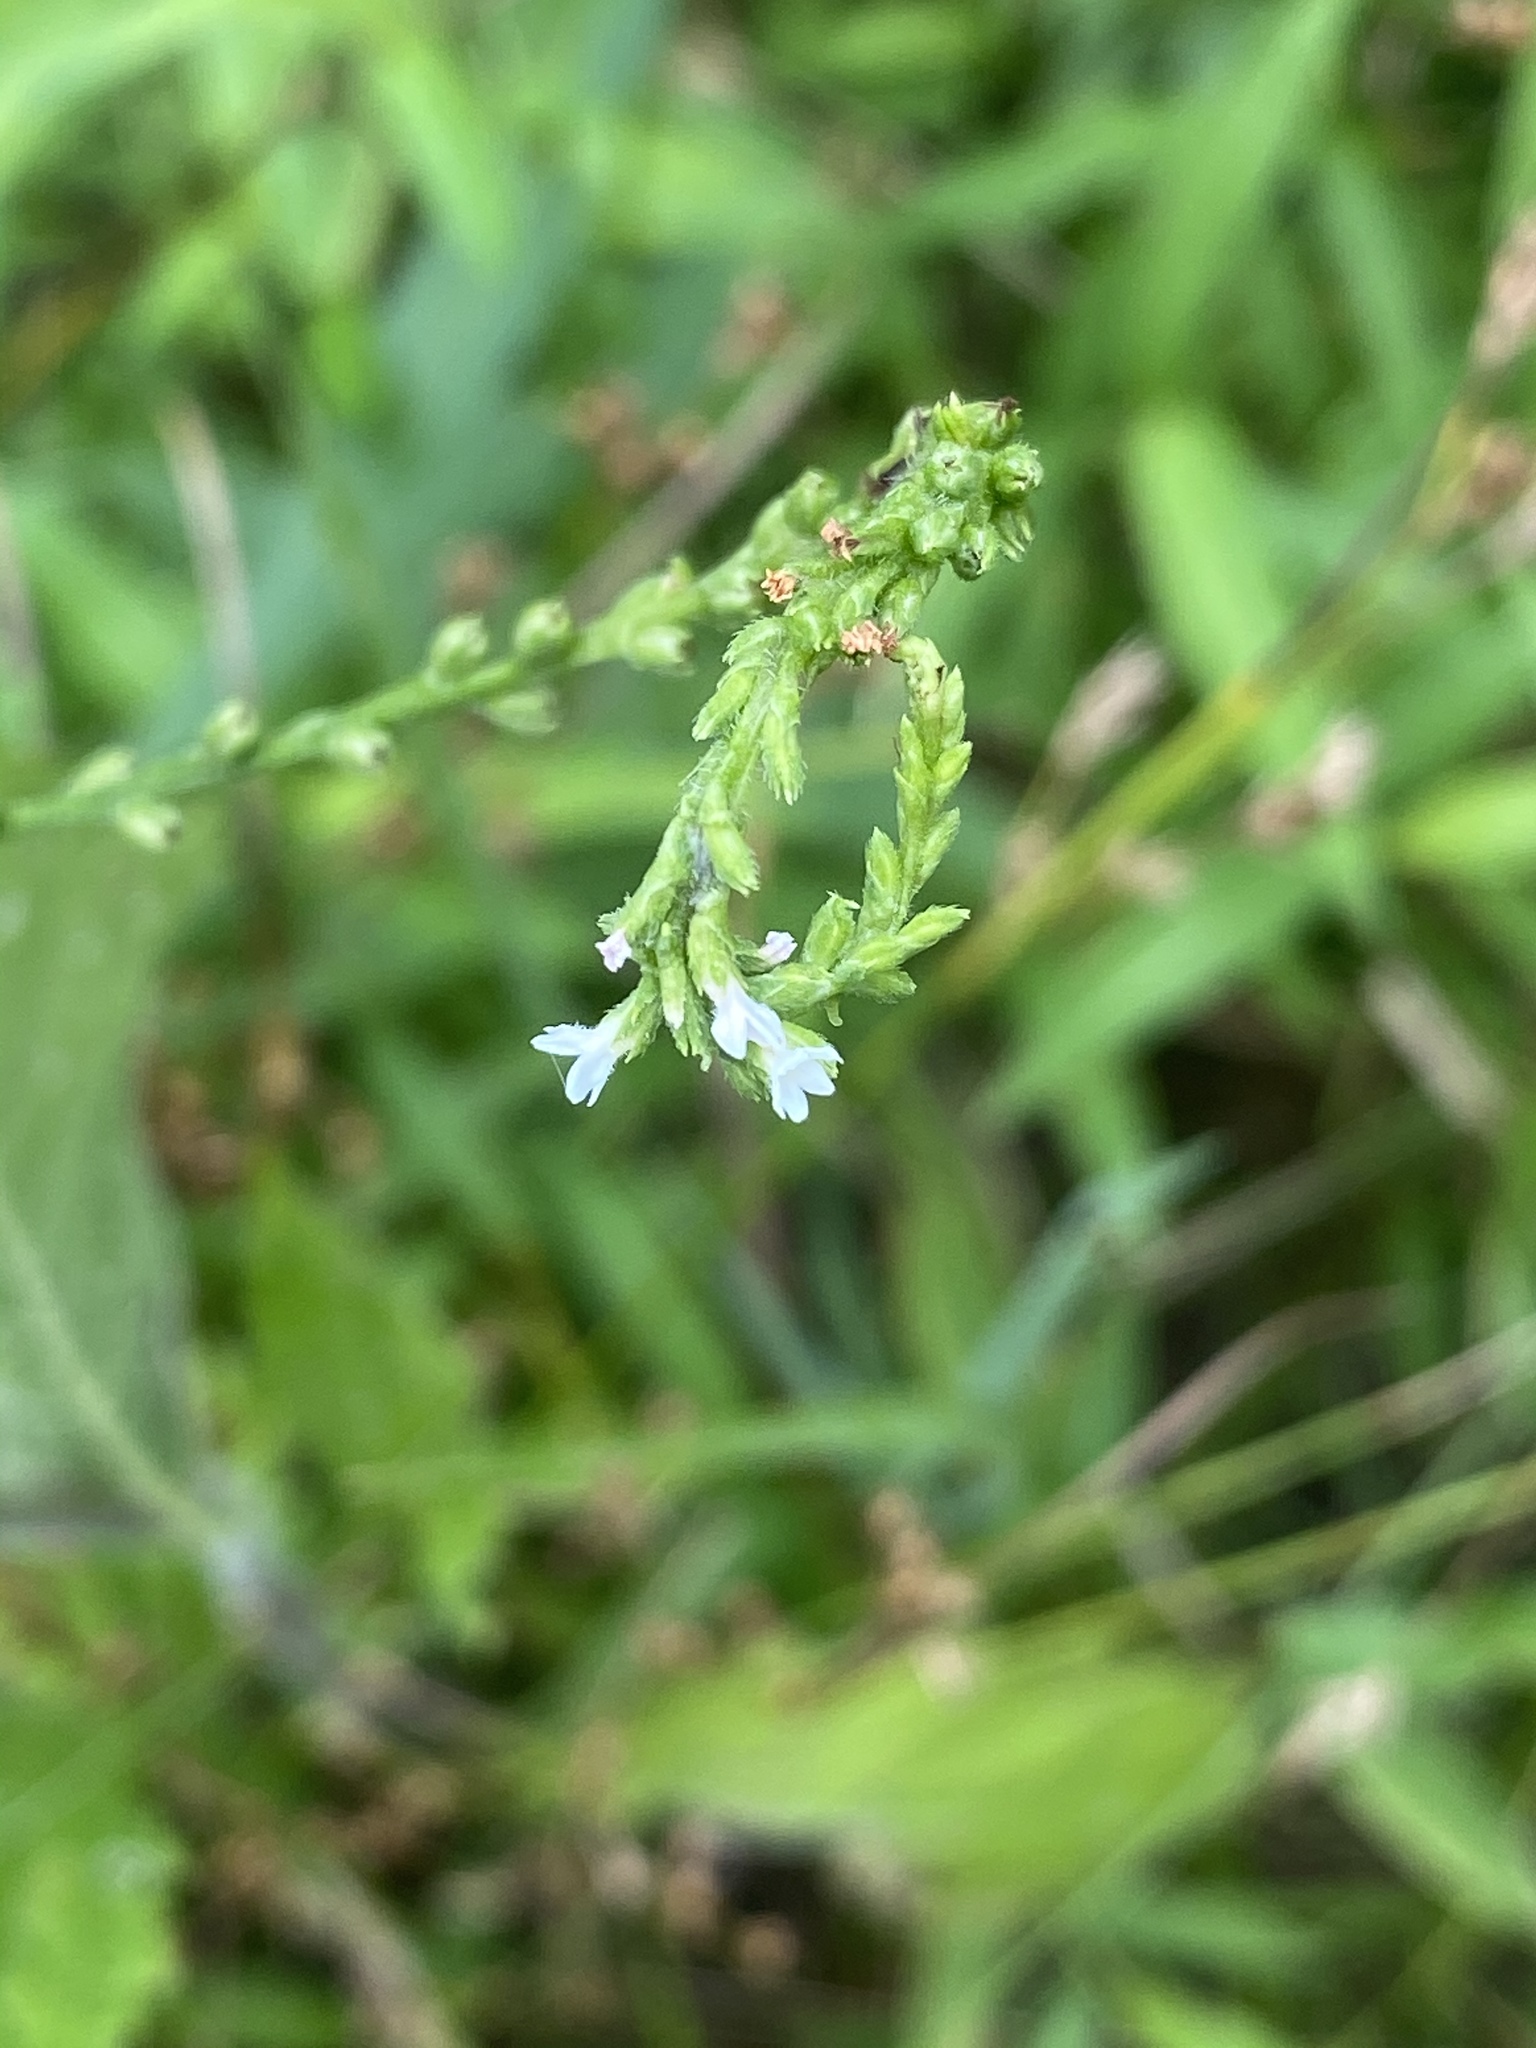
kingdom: Plantae
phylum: Tracheophyta
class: Magnoliopsida
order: Lamiales
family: Verbenaceae
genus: Verbena
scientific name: Verbena urticifolia
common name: Nettle-leaved vervain
